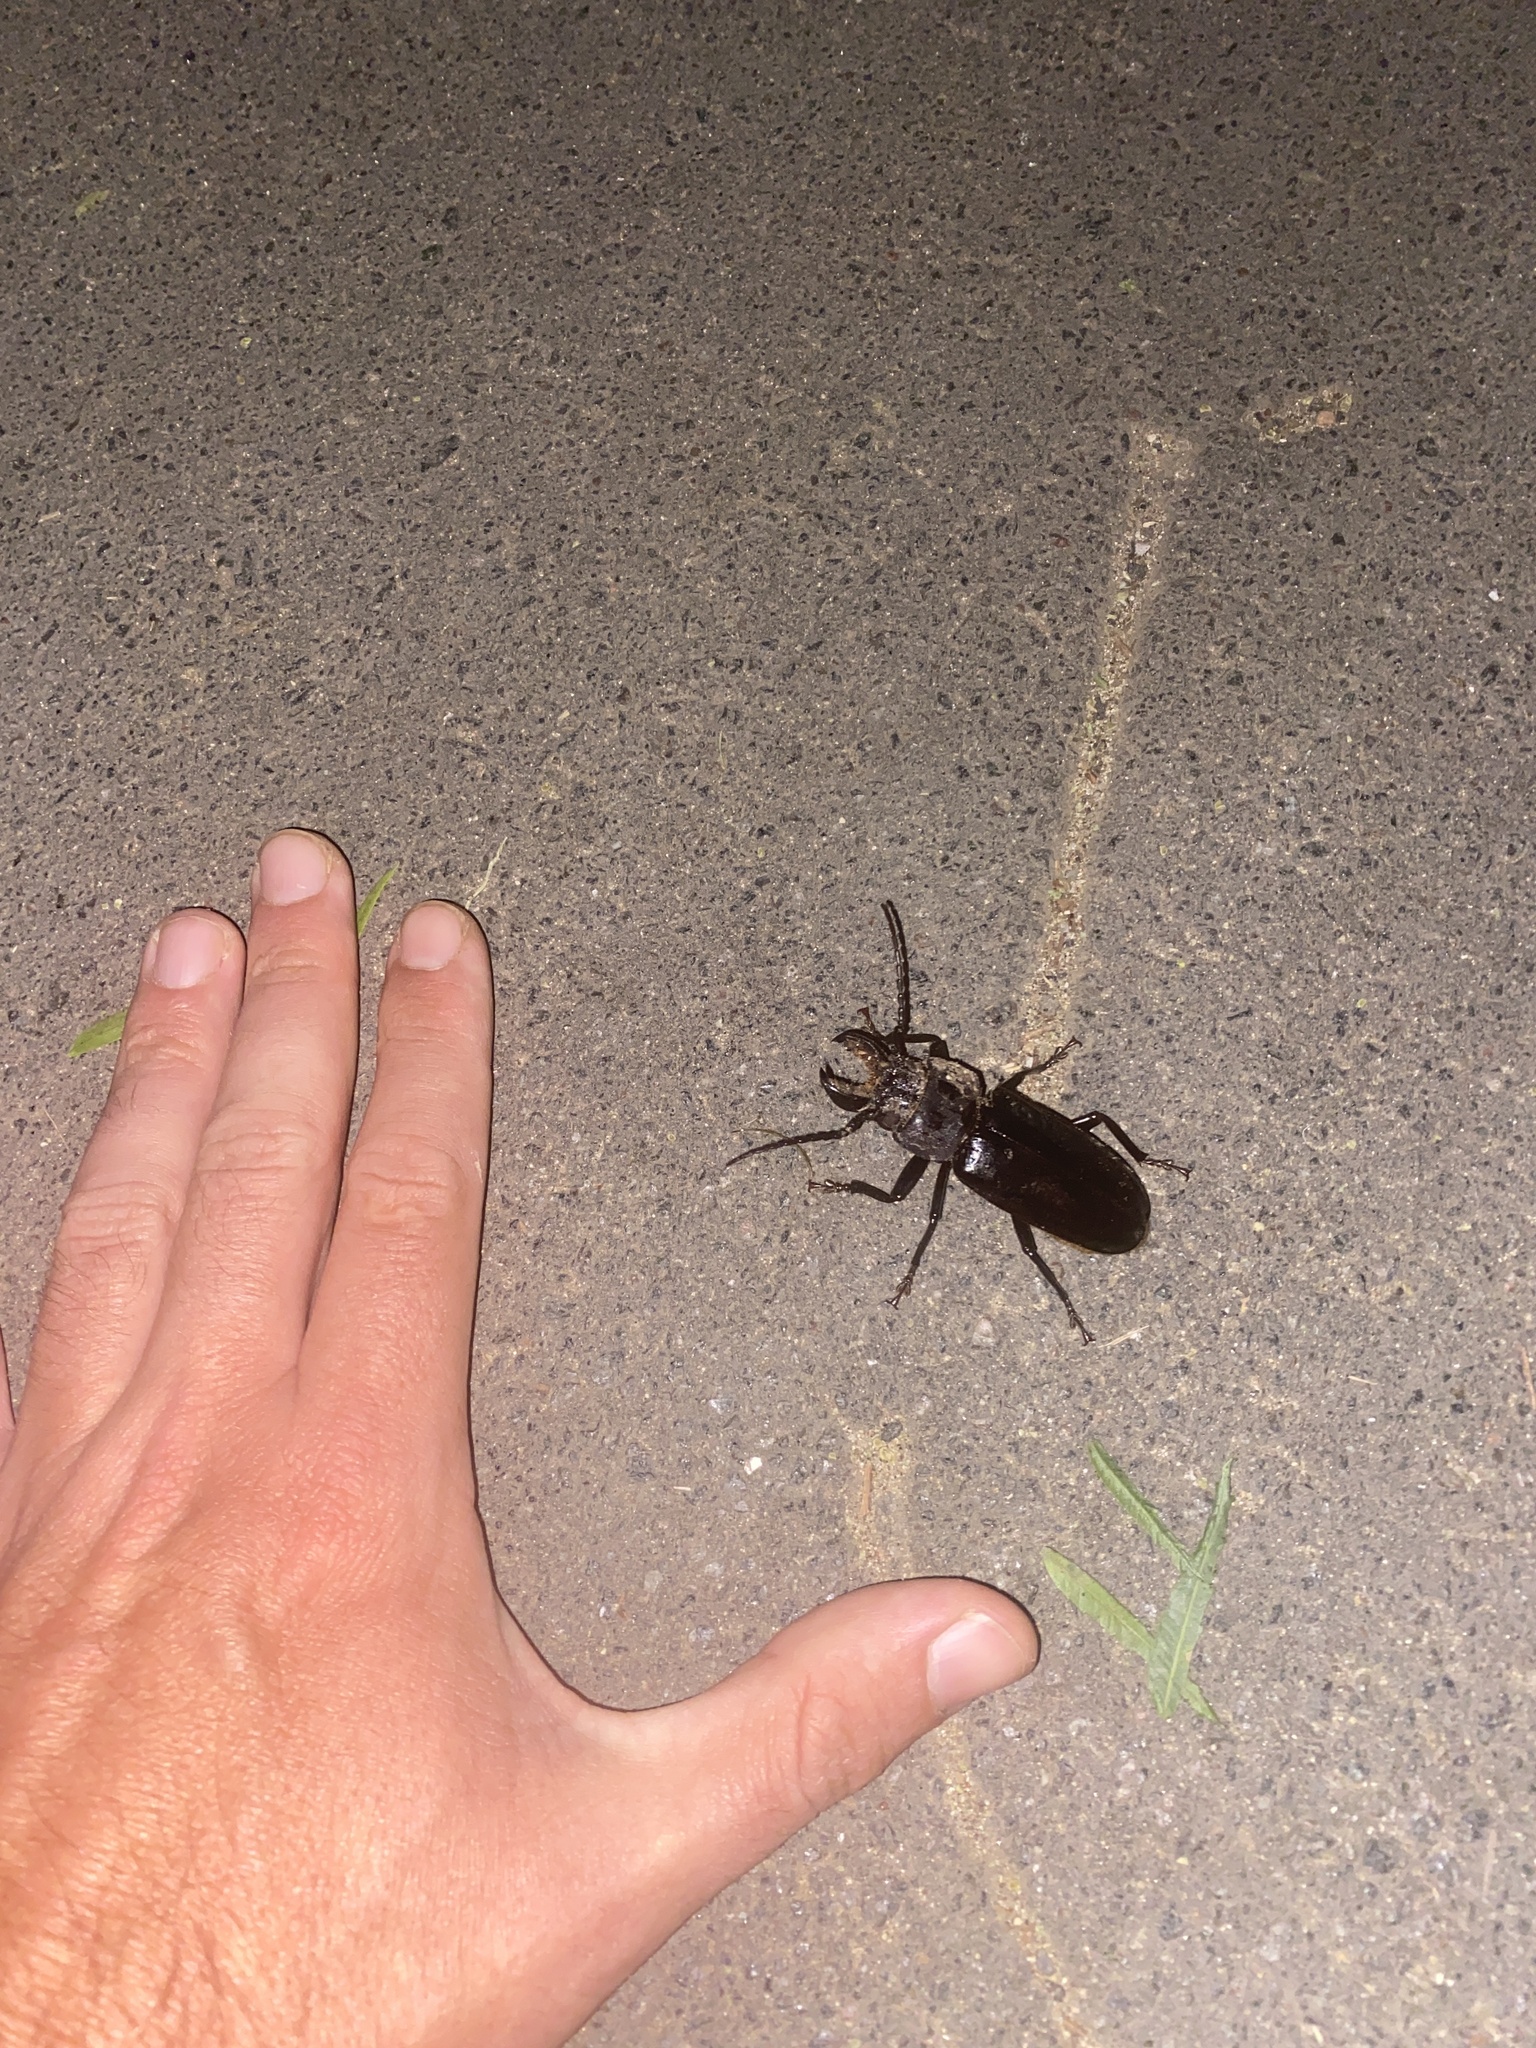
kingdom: Animalia
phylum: Arthropoda
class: Insecta
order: Coleoptera
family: Cerambycidae
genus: Mallodon
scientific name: Mallodon dasystomum
